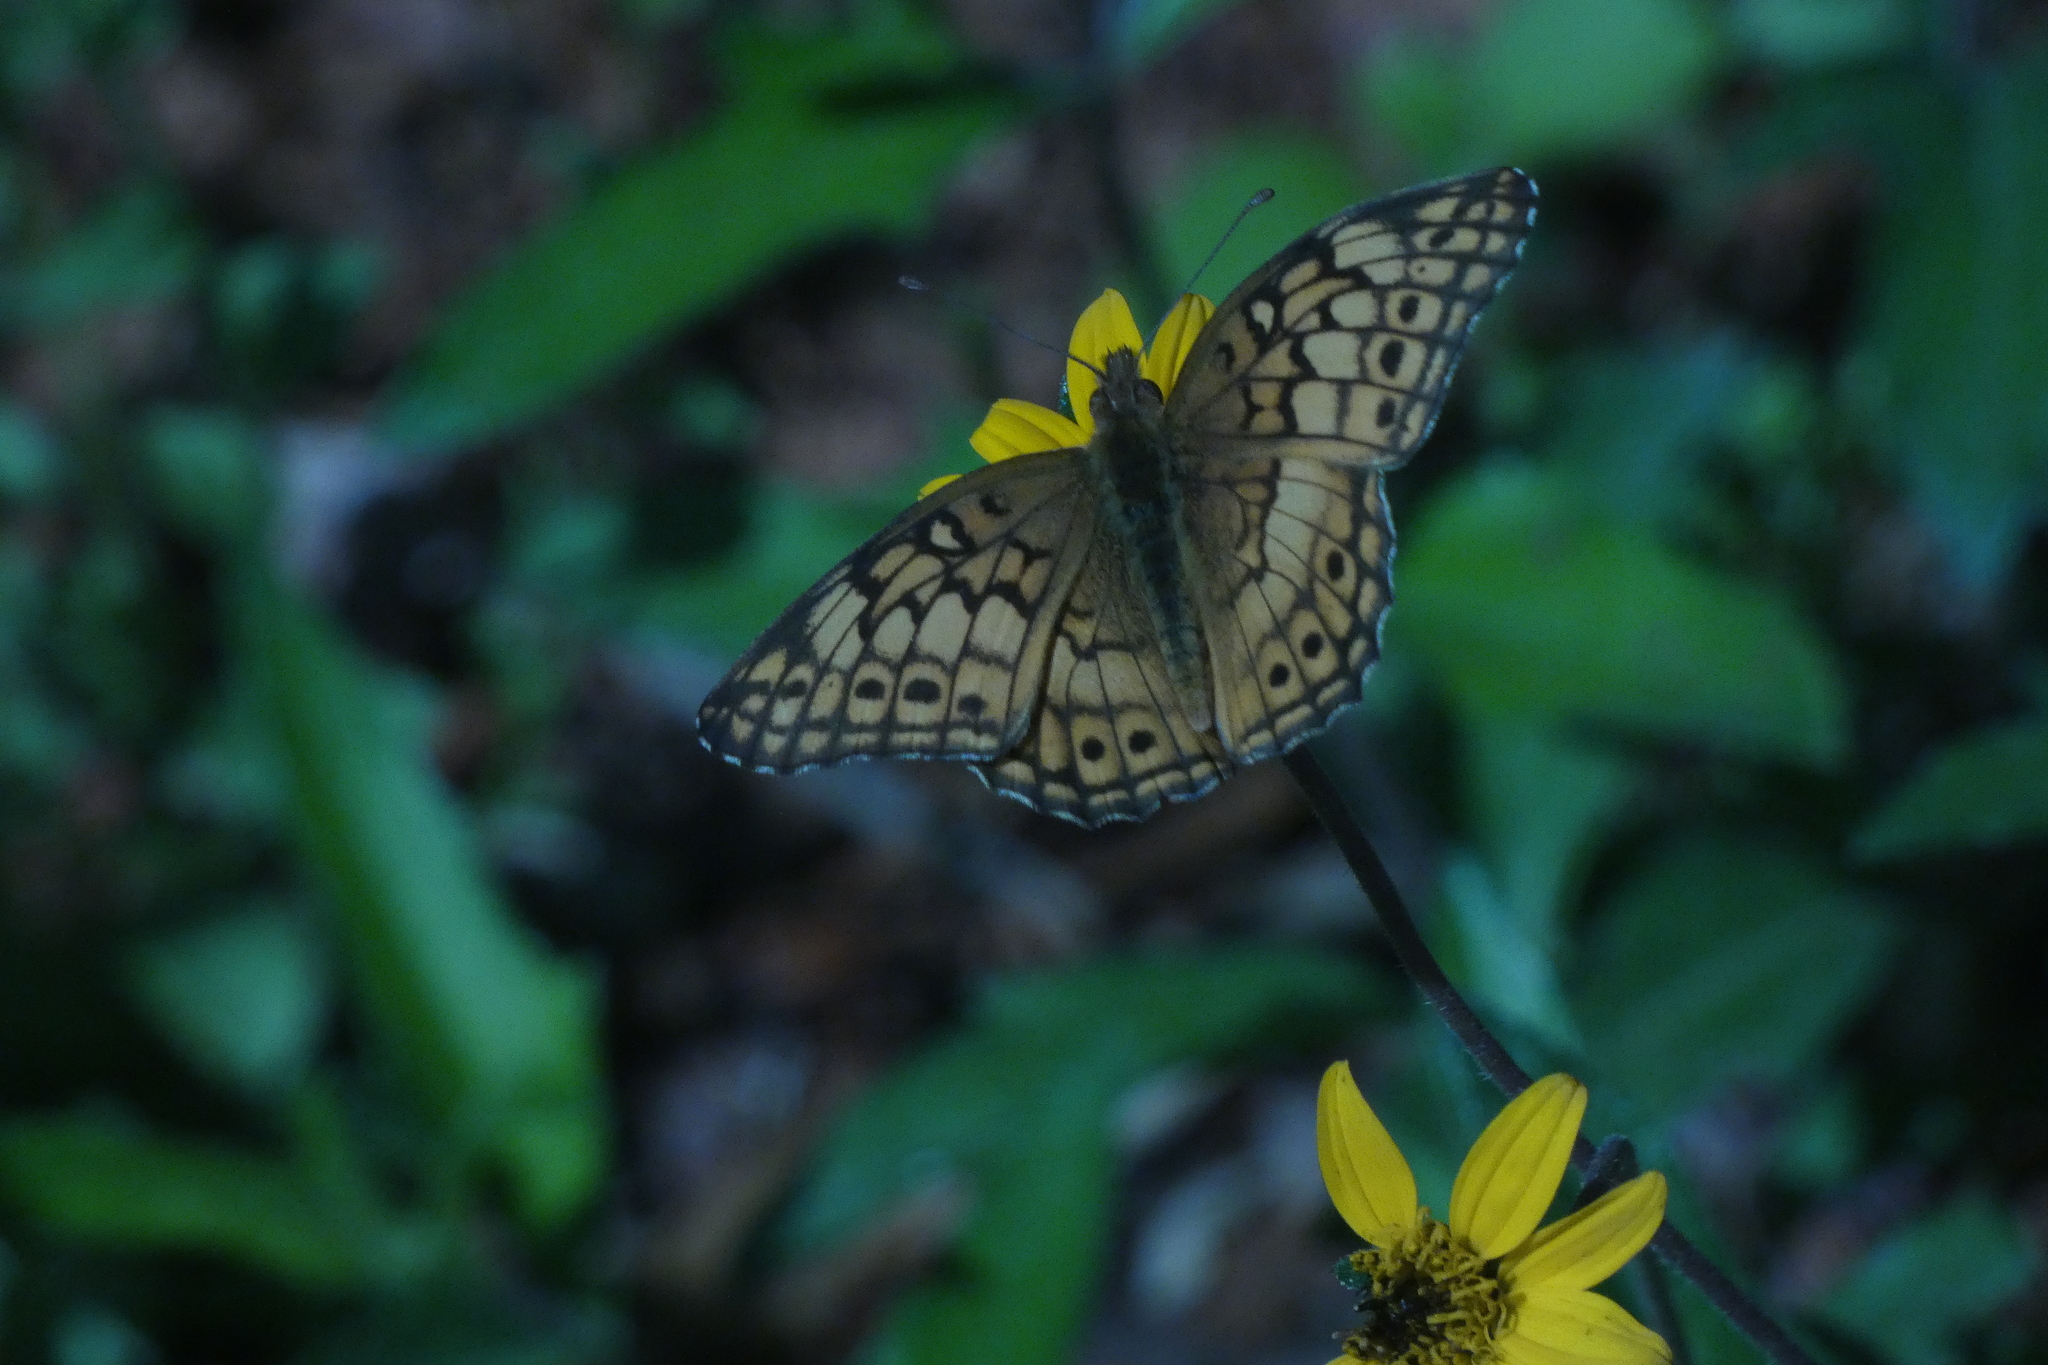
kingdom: Animalia
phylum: Arthropoda
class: Insecta
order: Lepidoptera
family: Nymphalidae
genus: Euptoieta
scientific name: Euptoieta claudia
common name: Variegated fritillary
